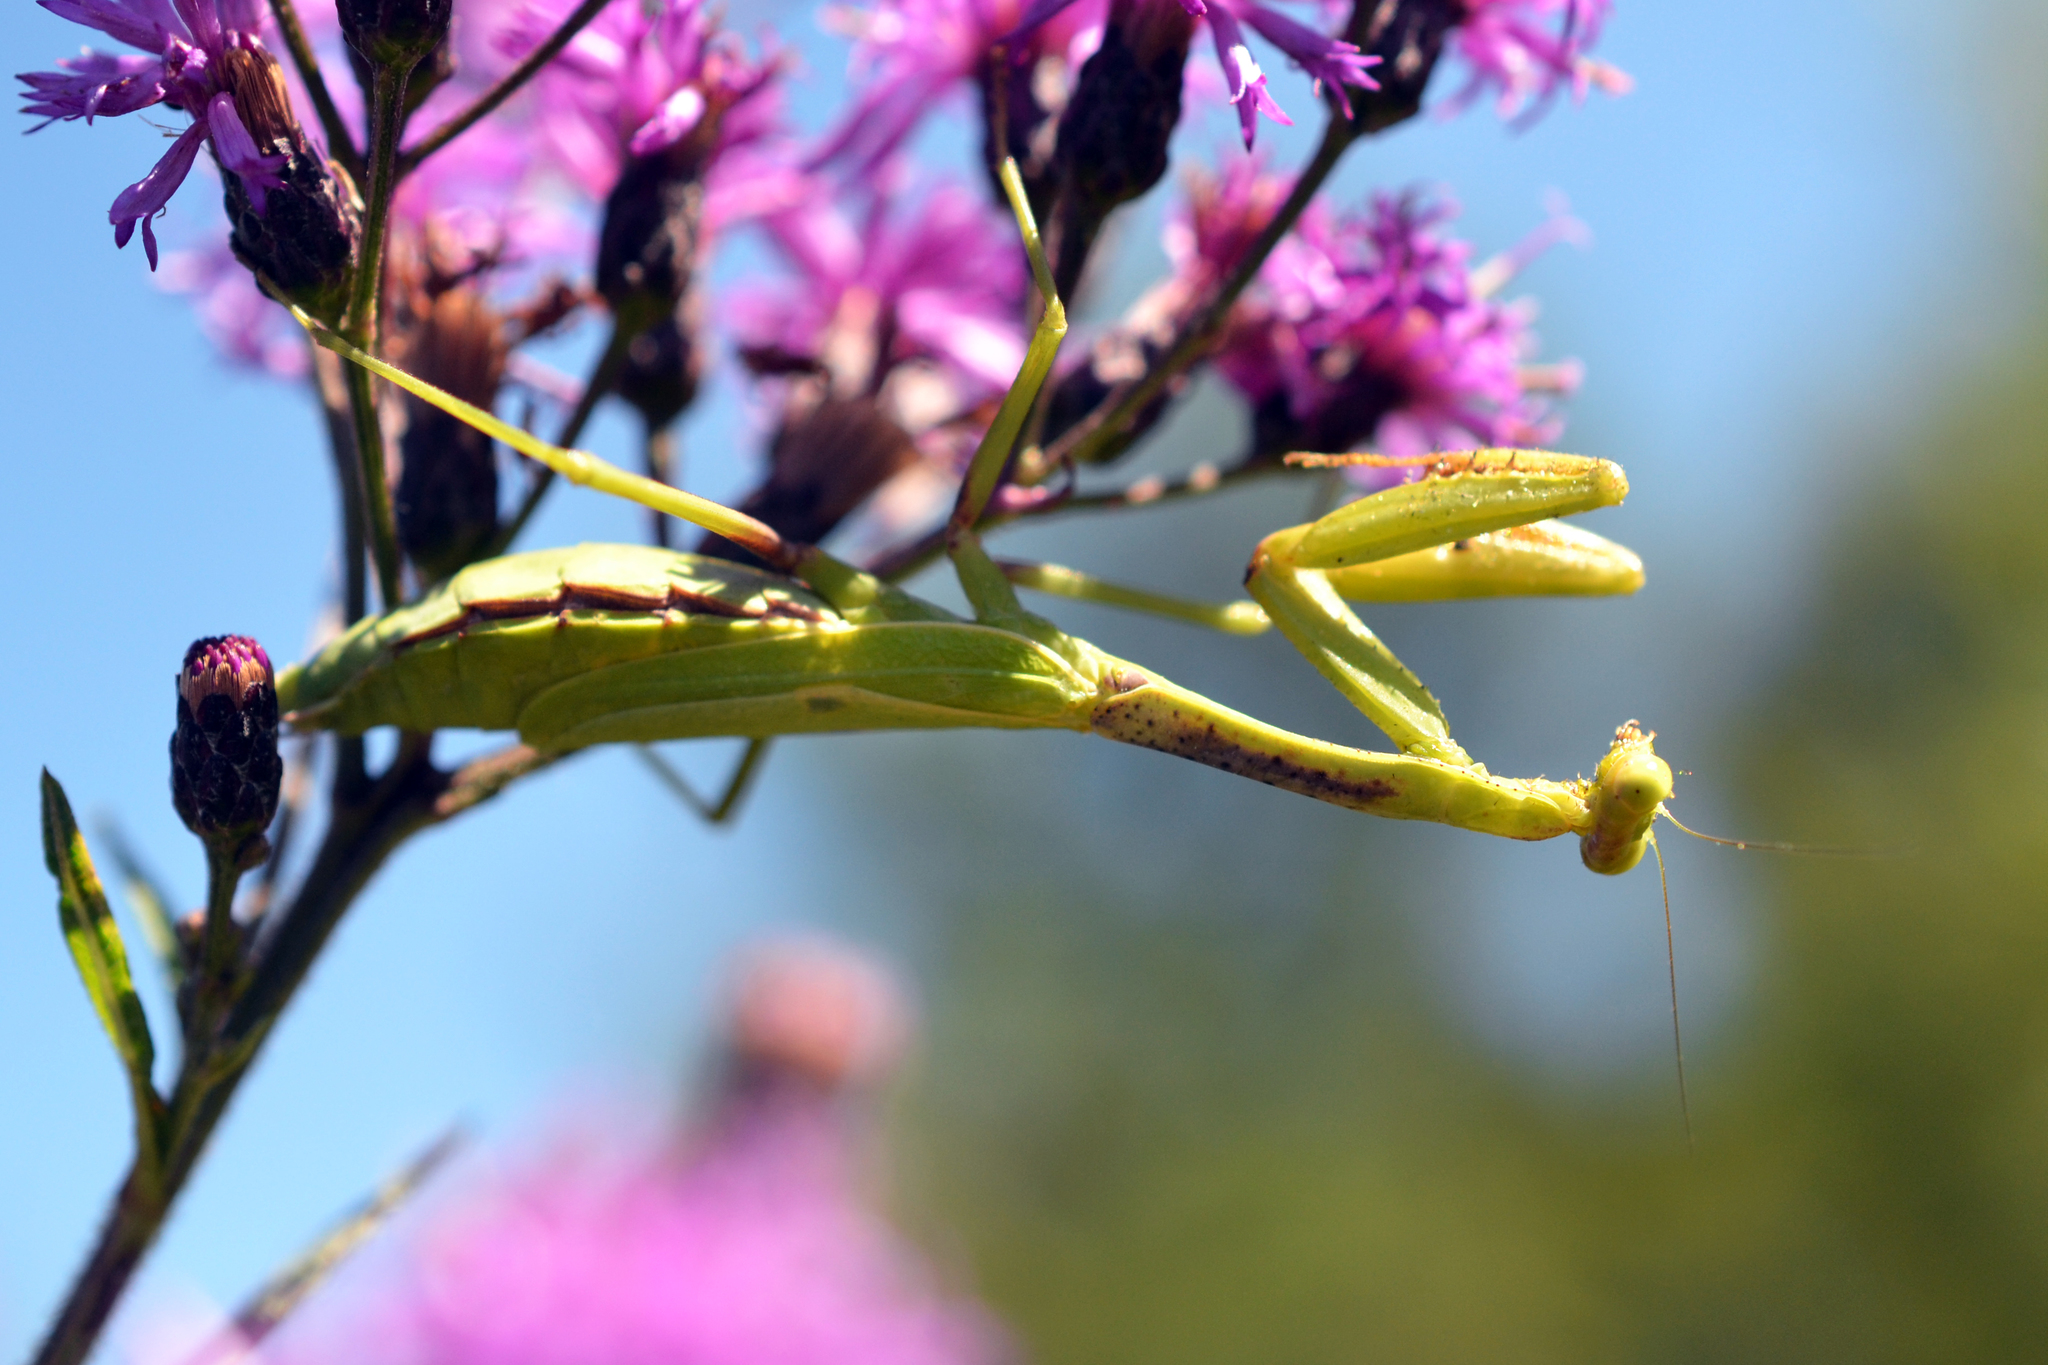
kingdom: Animalia
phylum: Arthropoda
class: Insecta
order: Mantodea
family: Mantidae
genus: Stagmomantis
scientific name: Stagmomantis carolina
